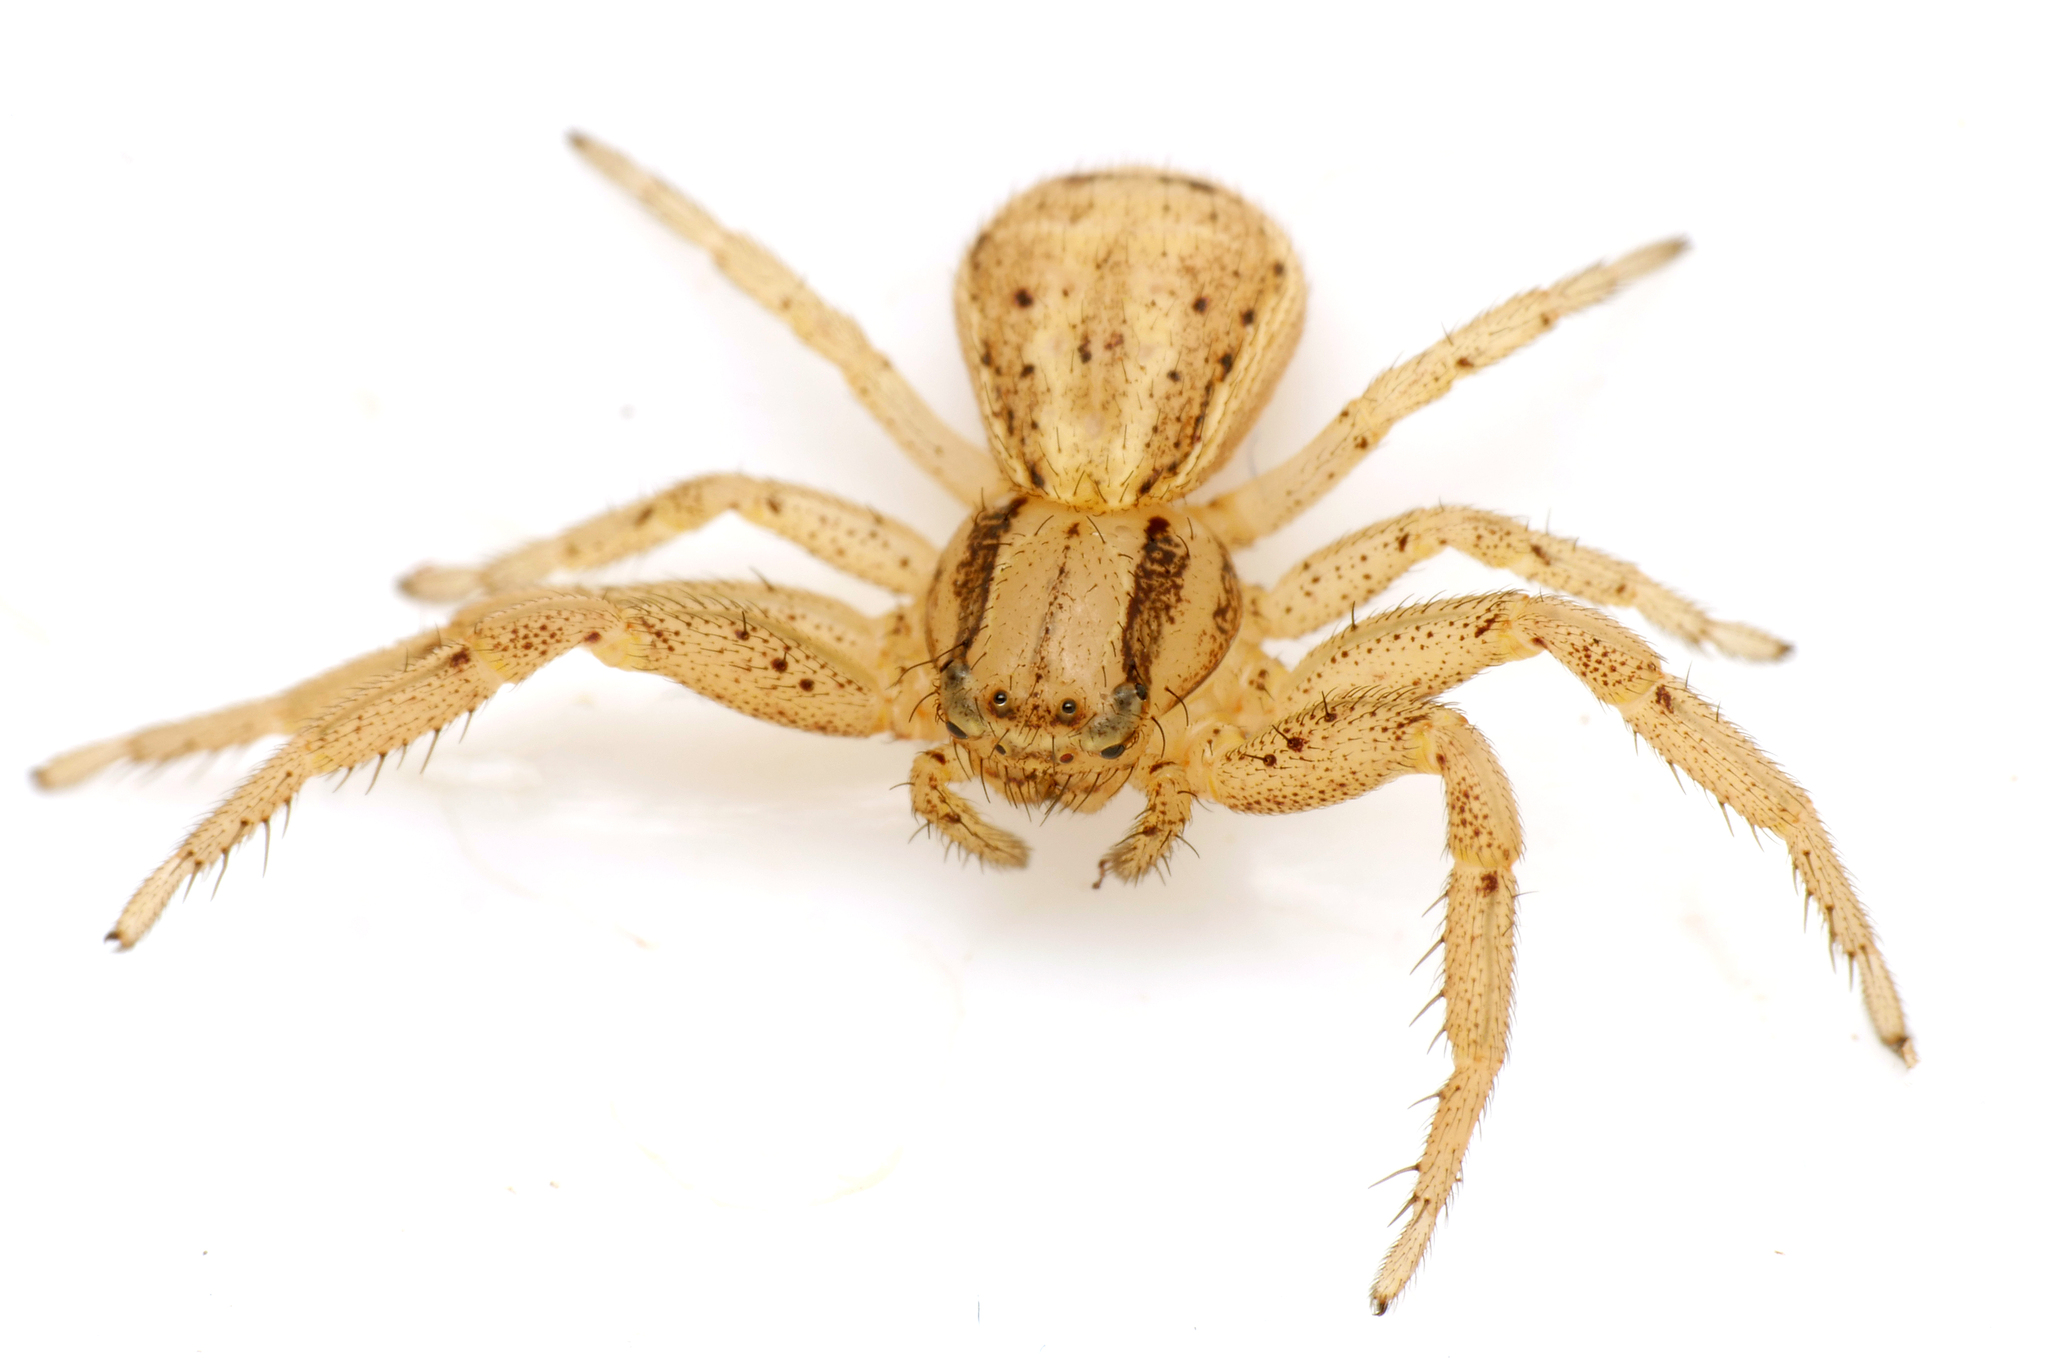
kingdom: Animalia
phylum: Arthropoda
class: Arachnida
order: Araneae
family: Thomisidae
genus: Xysticus
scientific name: Xysticus erraticus
